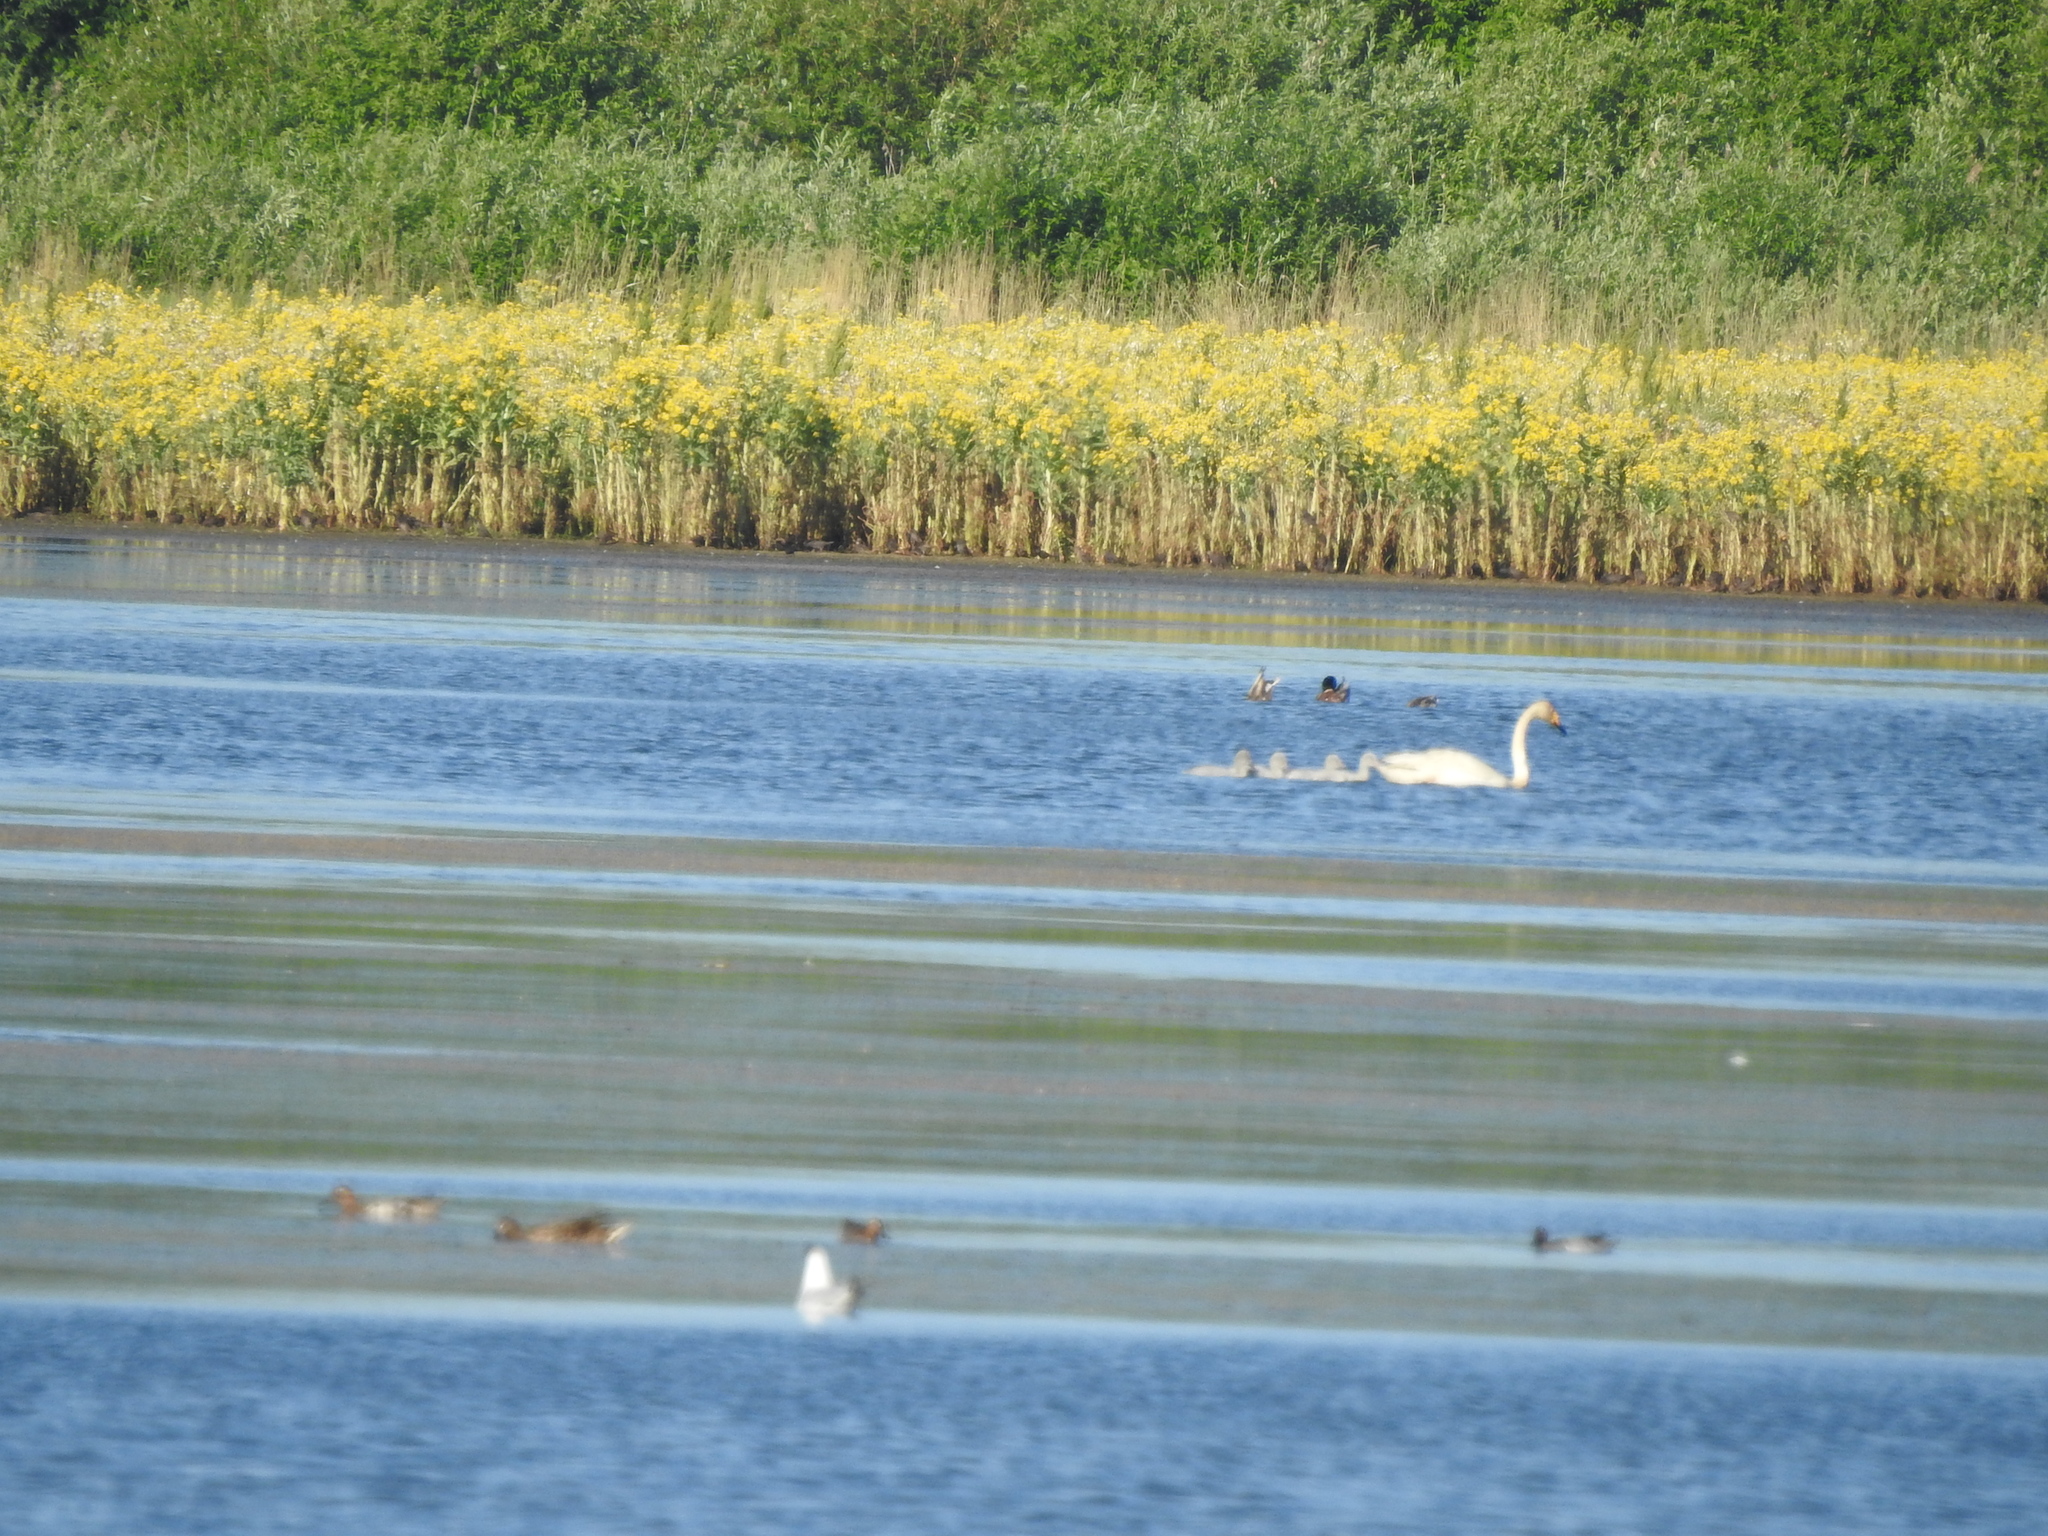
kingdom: Animalia
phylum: Chordata
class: Aves
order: Anseriformes
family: Anatidae
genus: Cygnus
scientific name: Cygnus cygnus
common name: Whooper swan
